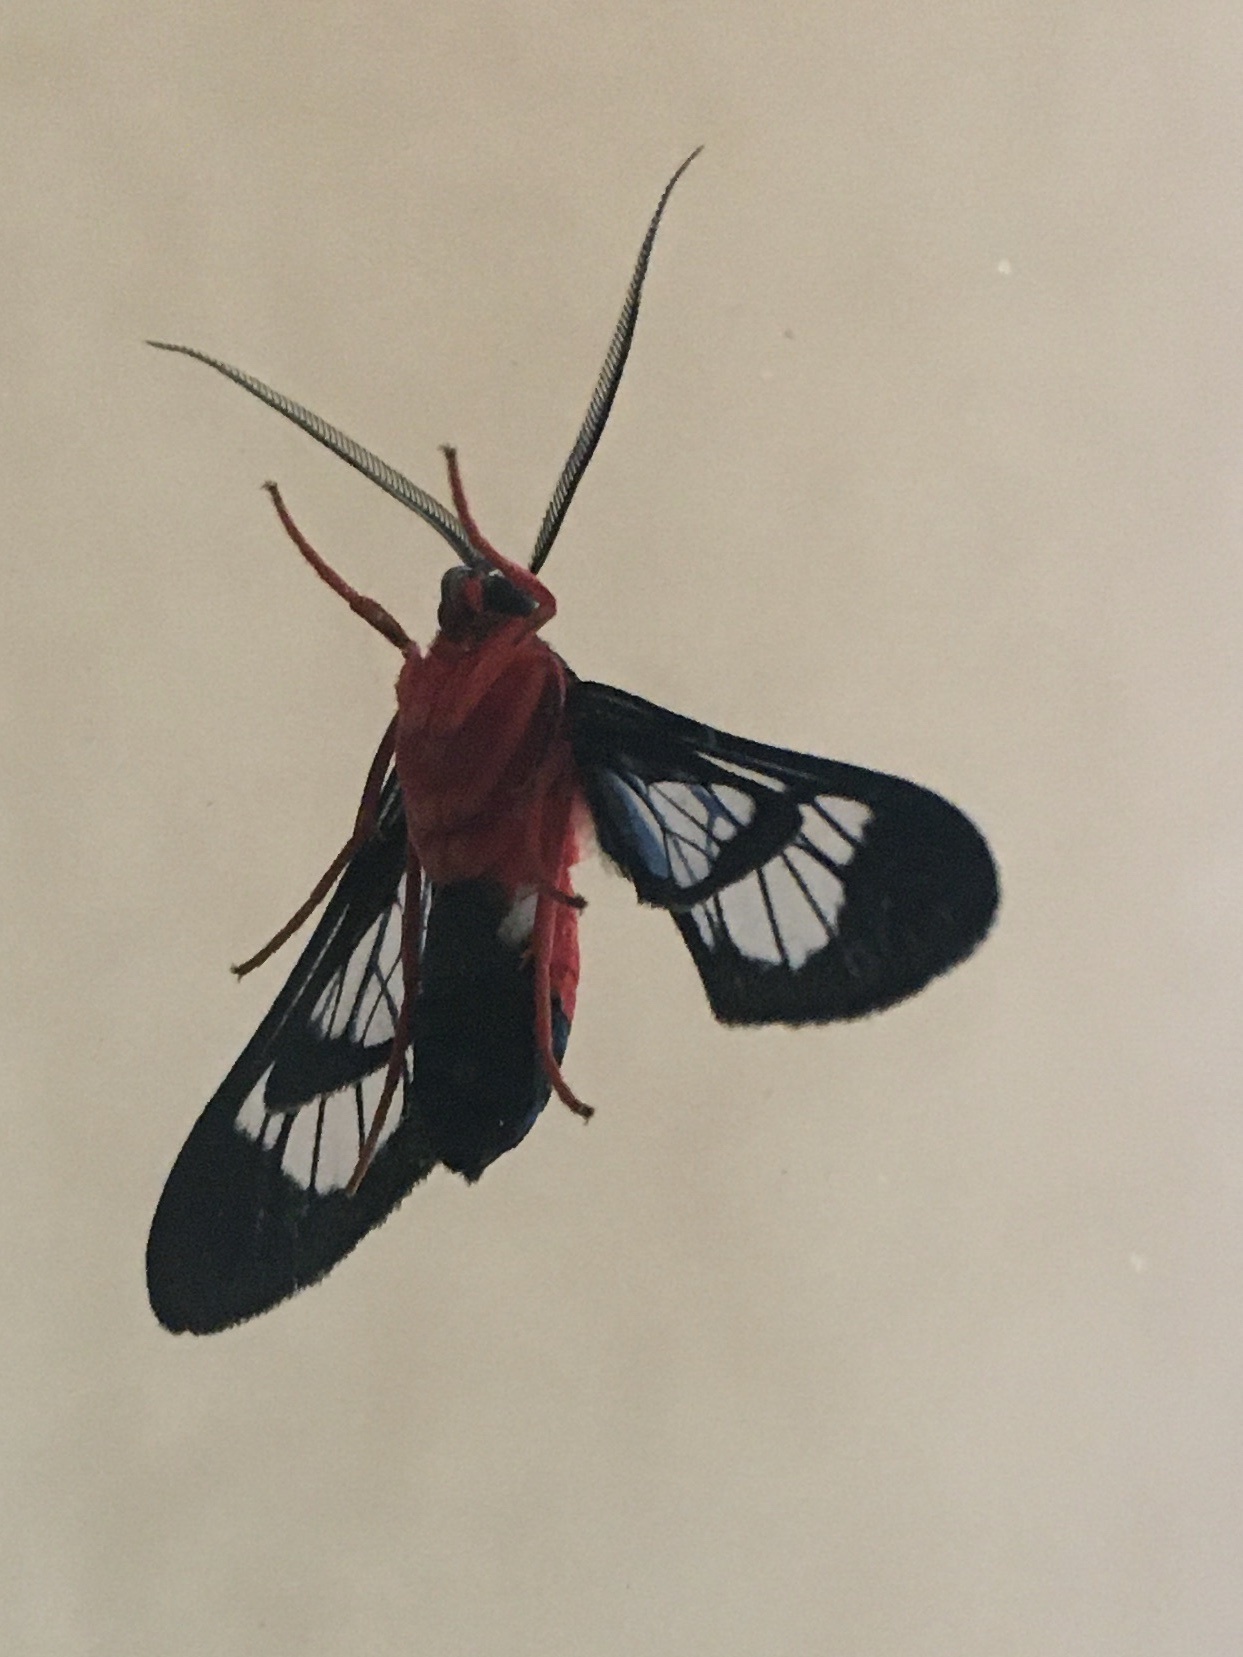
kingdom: Animalia
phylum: Arthropoda
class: Insecta
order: Lepidoptera
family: Erebidae
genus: Cosmosoma
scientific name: Cosmosoma myrodora
